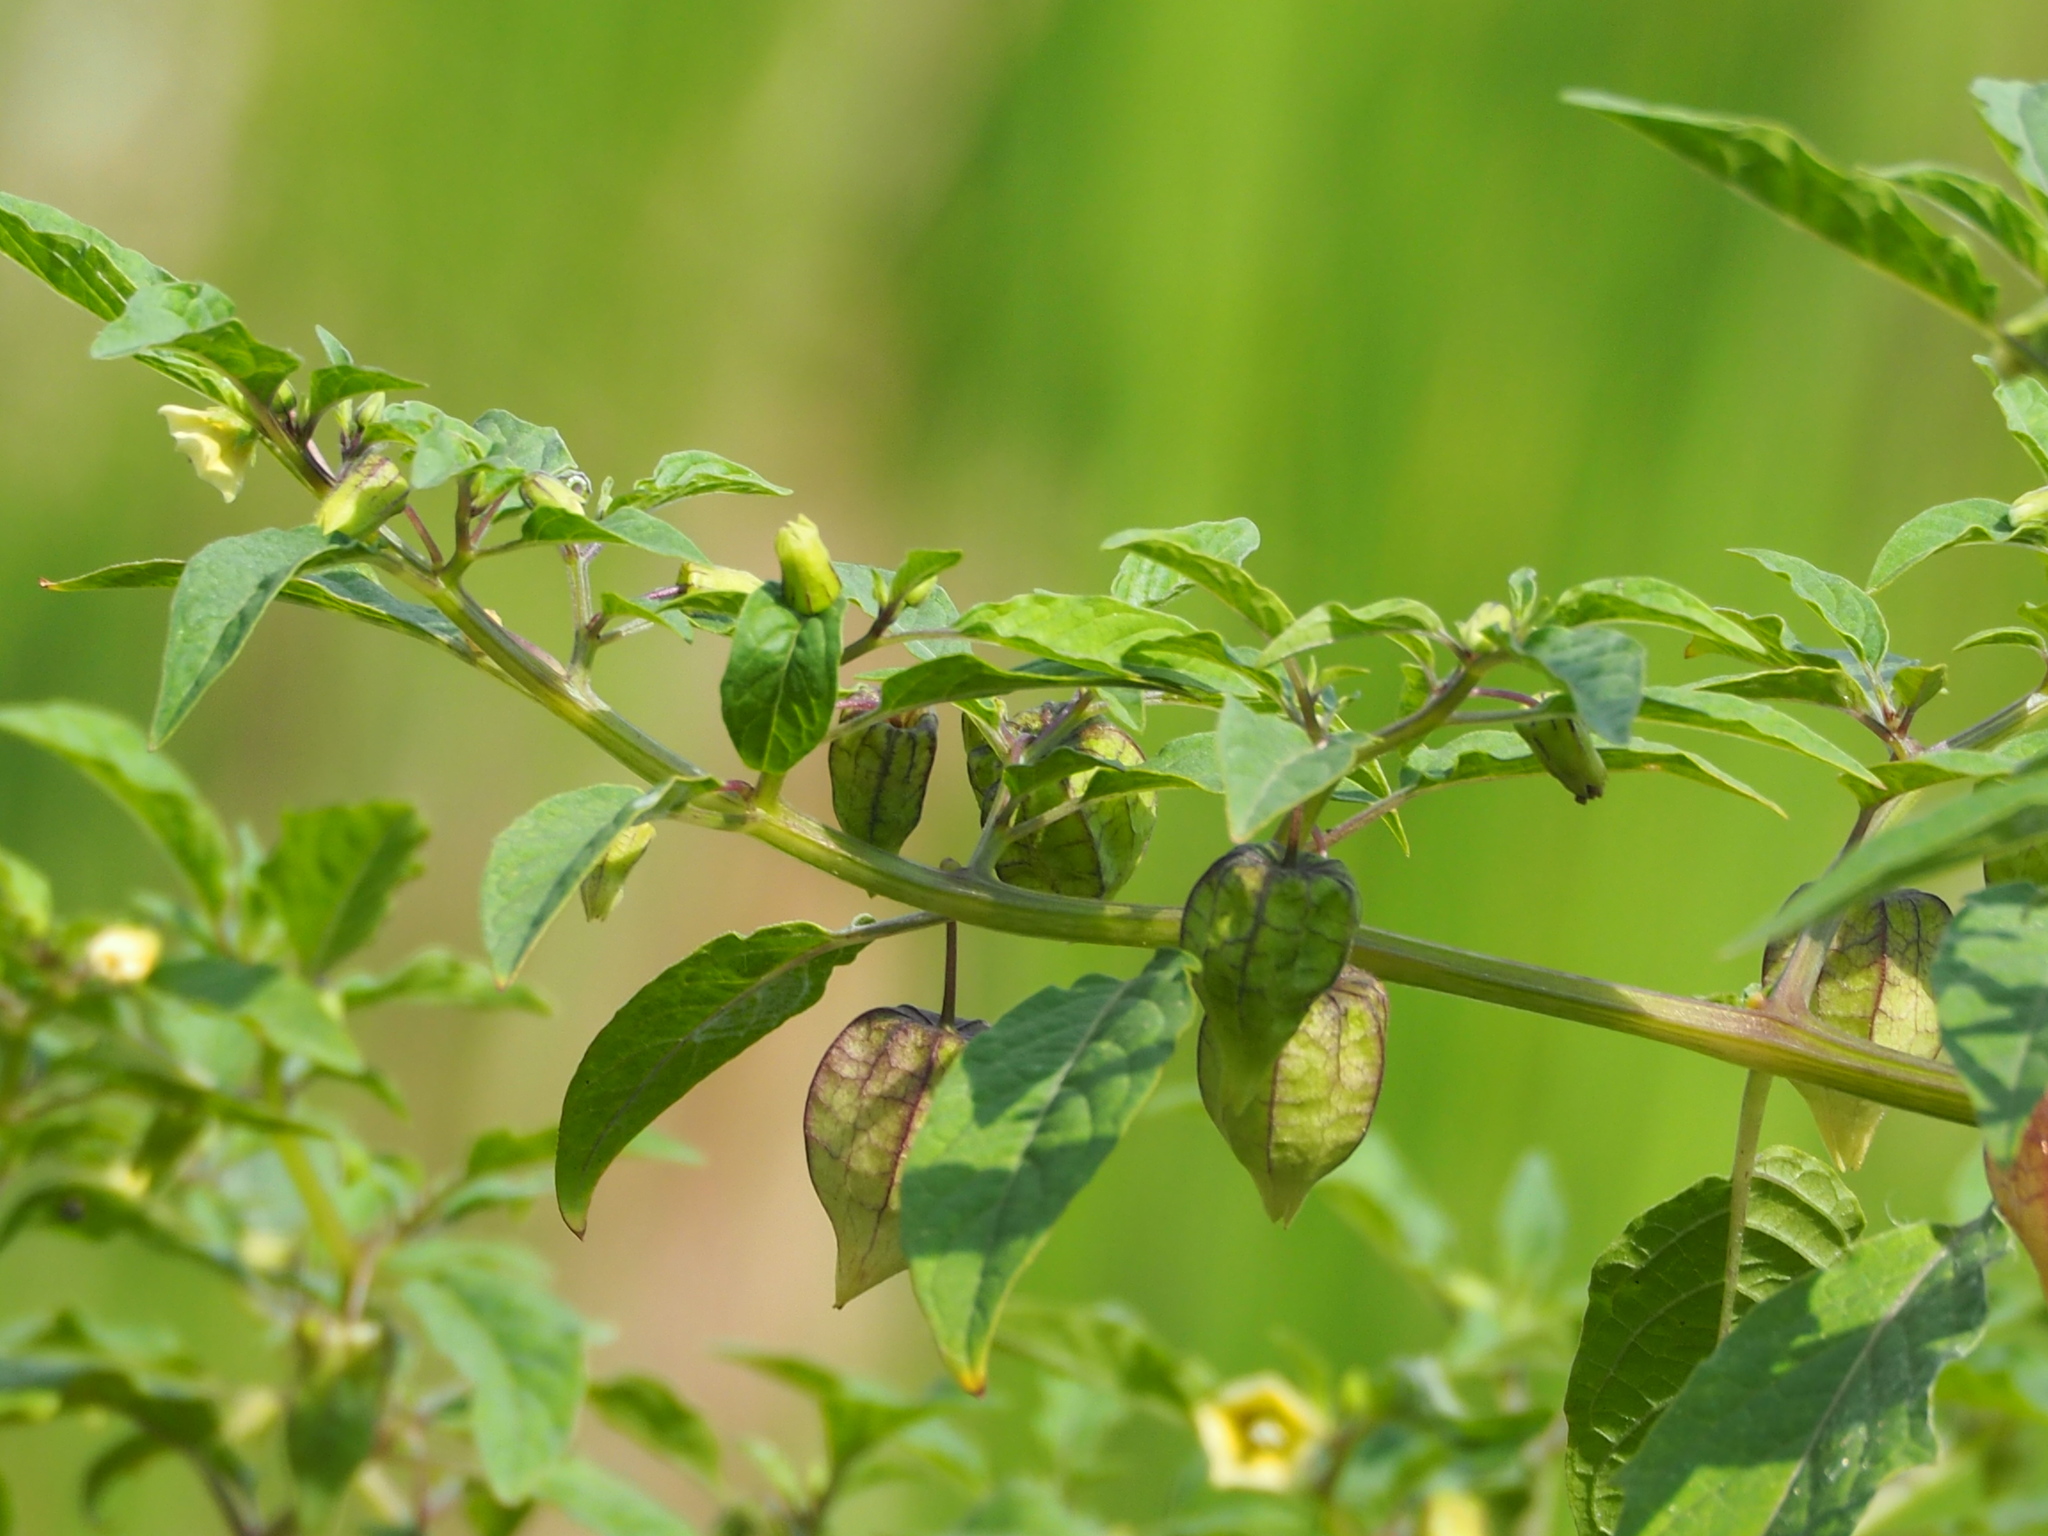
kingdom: Plantae
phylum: Tracheophyta
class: Magnoliopsida
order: Solanales
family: Solanaceae
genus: Physalis
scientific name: Physalis angulata
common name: Angular winter-cherry
